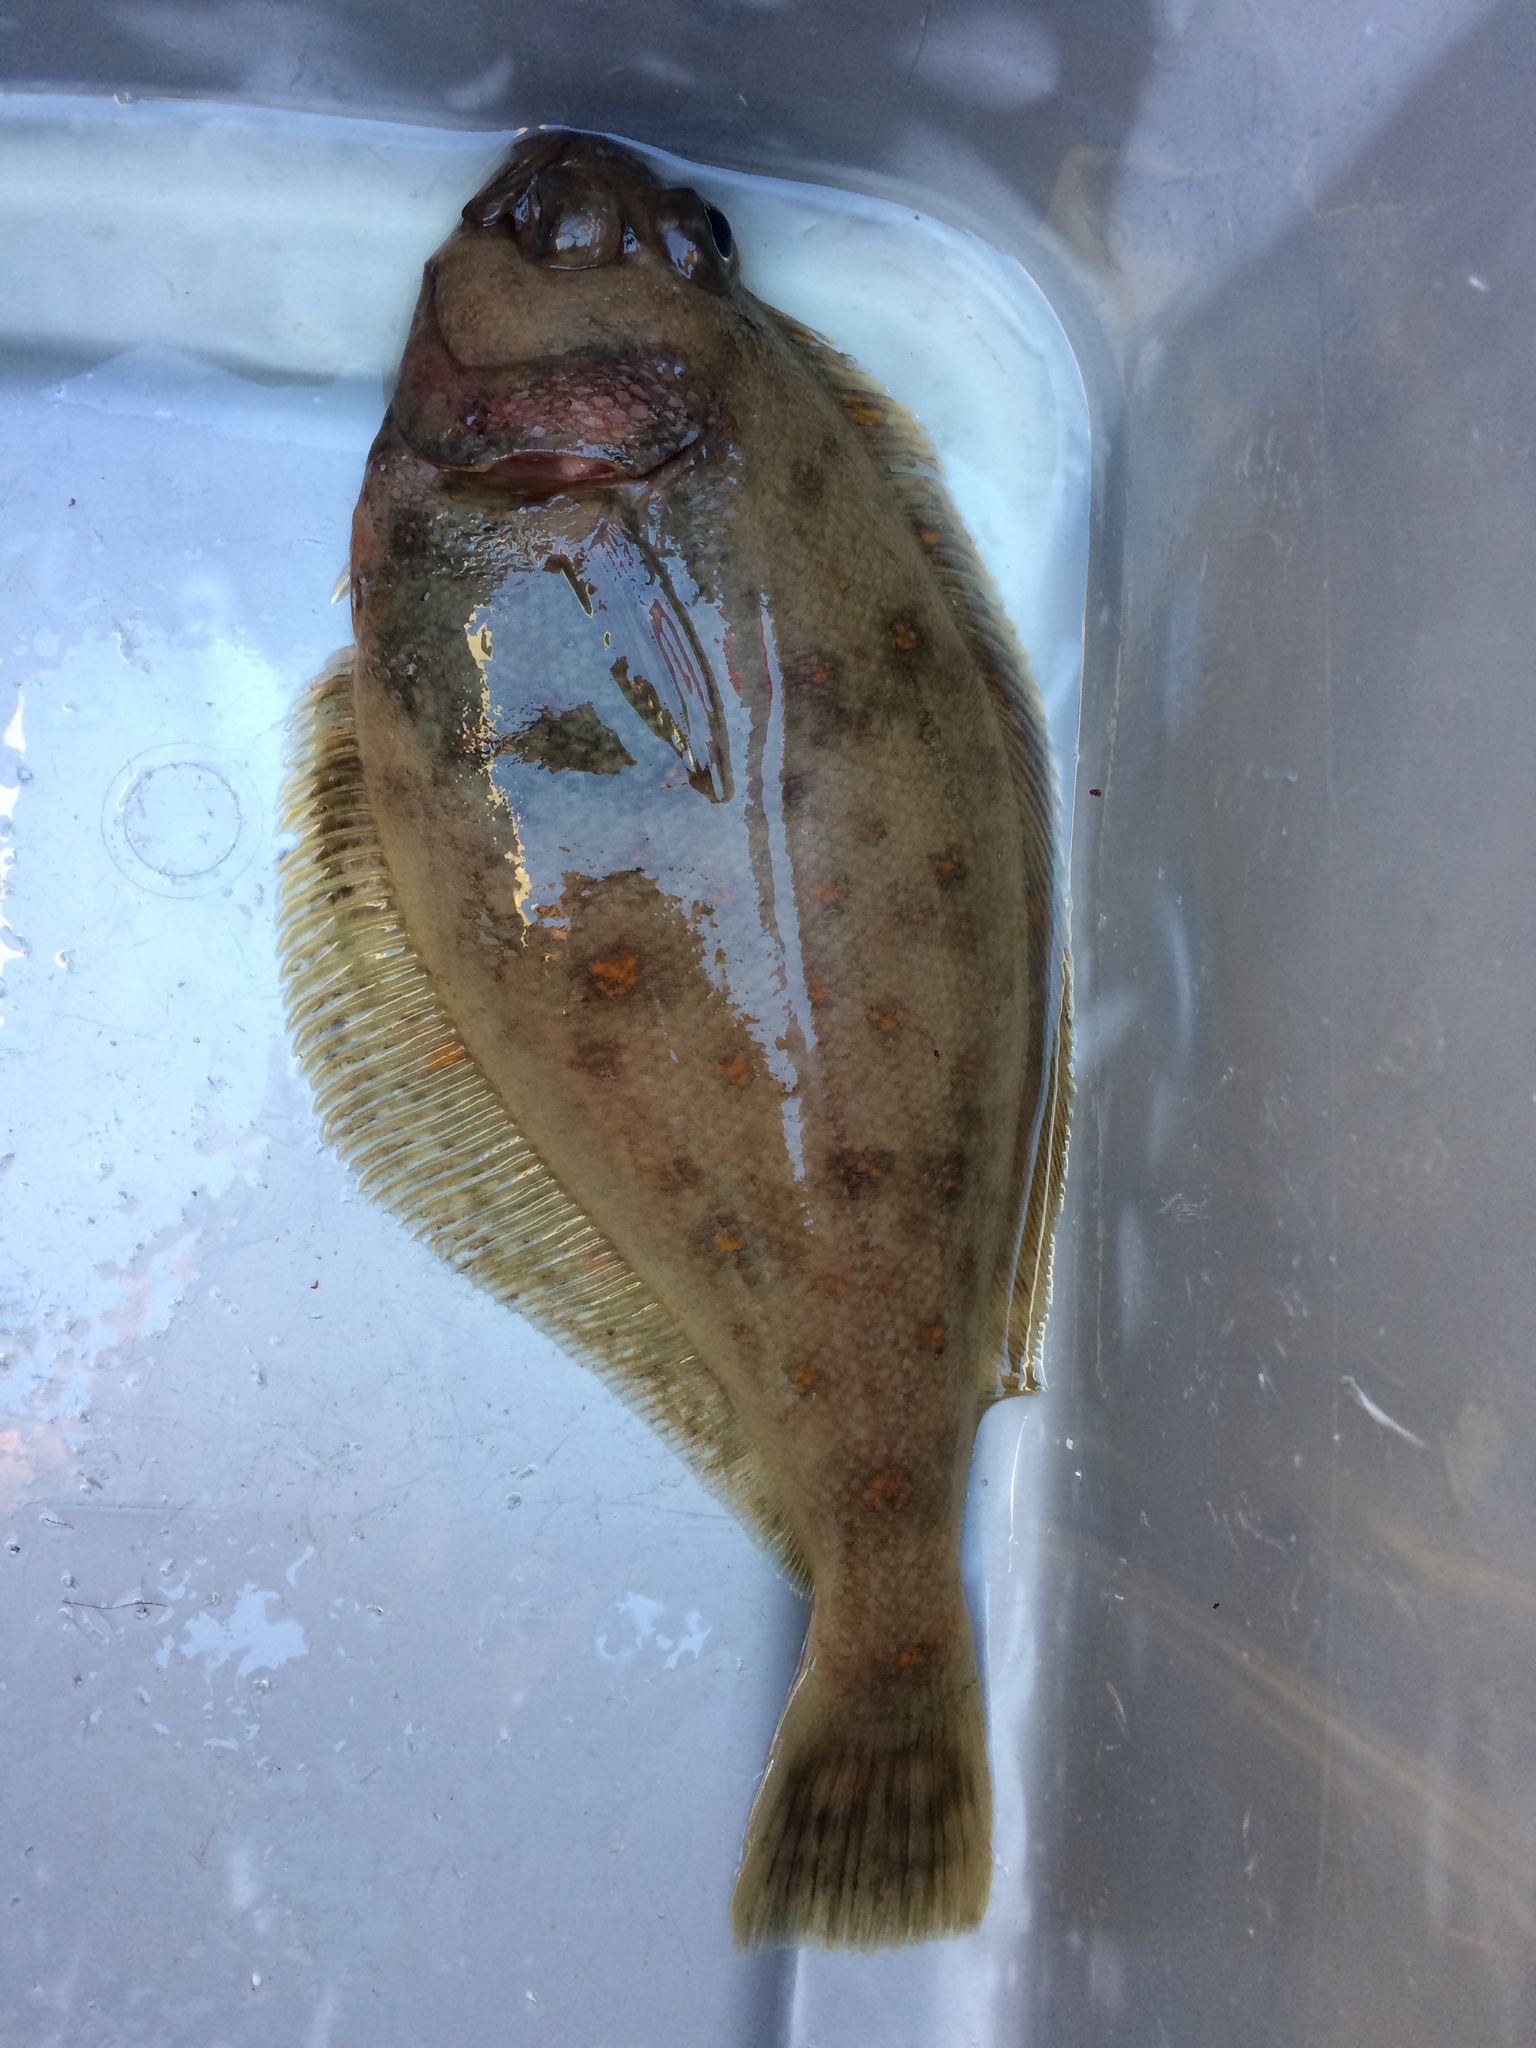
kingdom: Animalia
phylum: Chordata
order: Pleuronectiformes
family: Paralichthyidae
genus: Citharichthys
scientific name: Citharichthys sordidus
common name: Pacific sanddab
